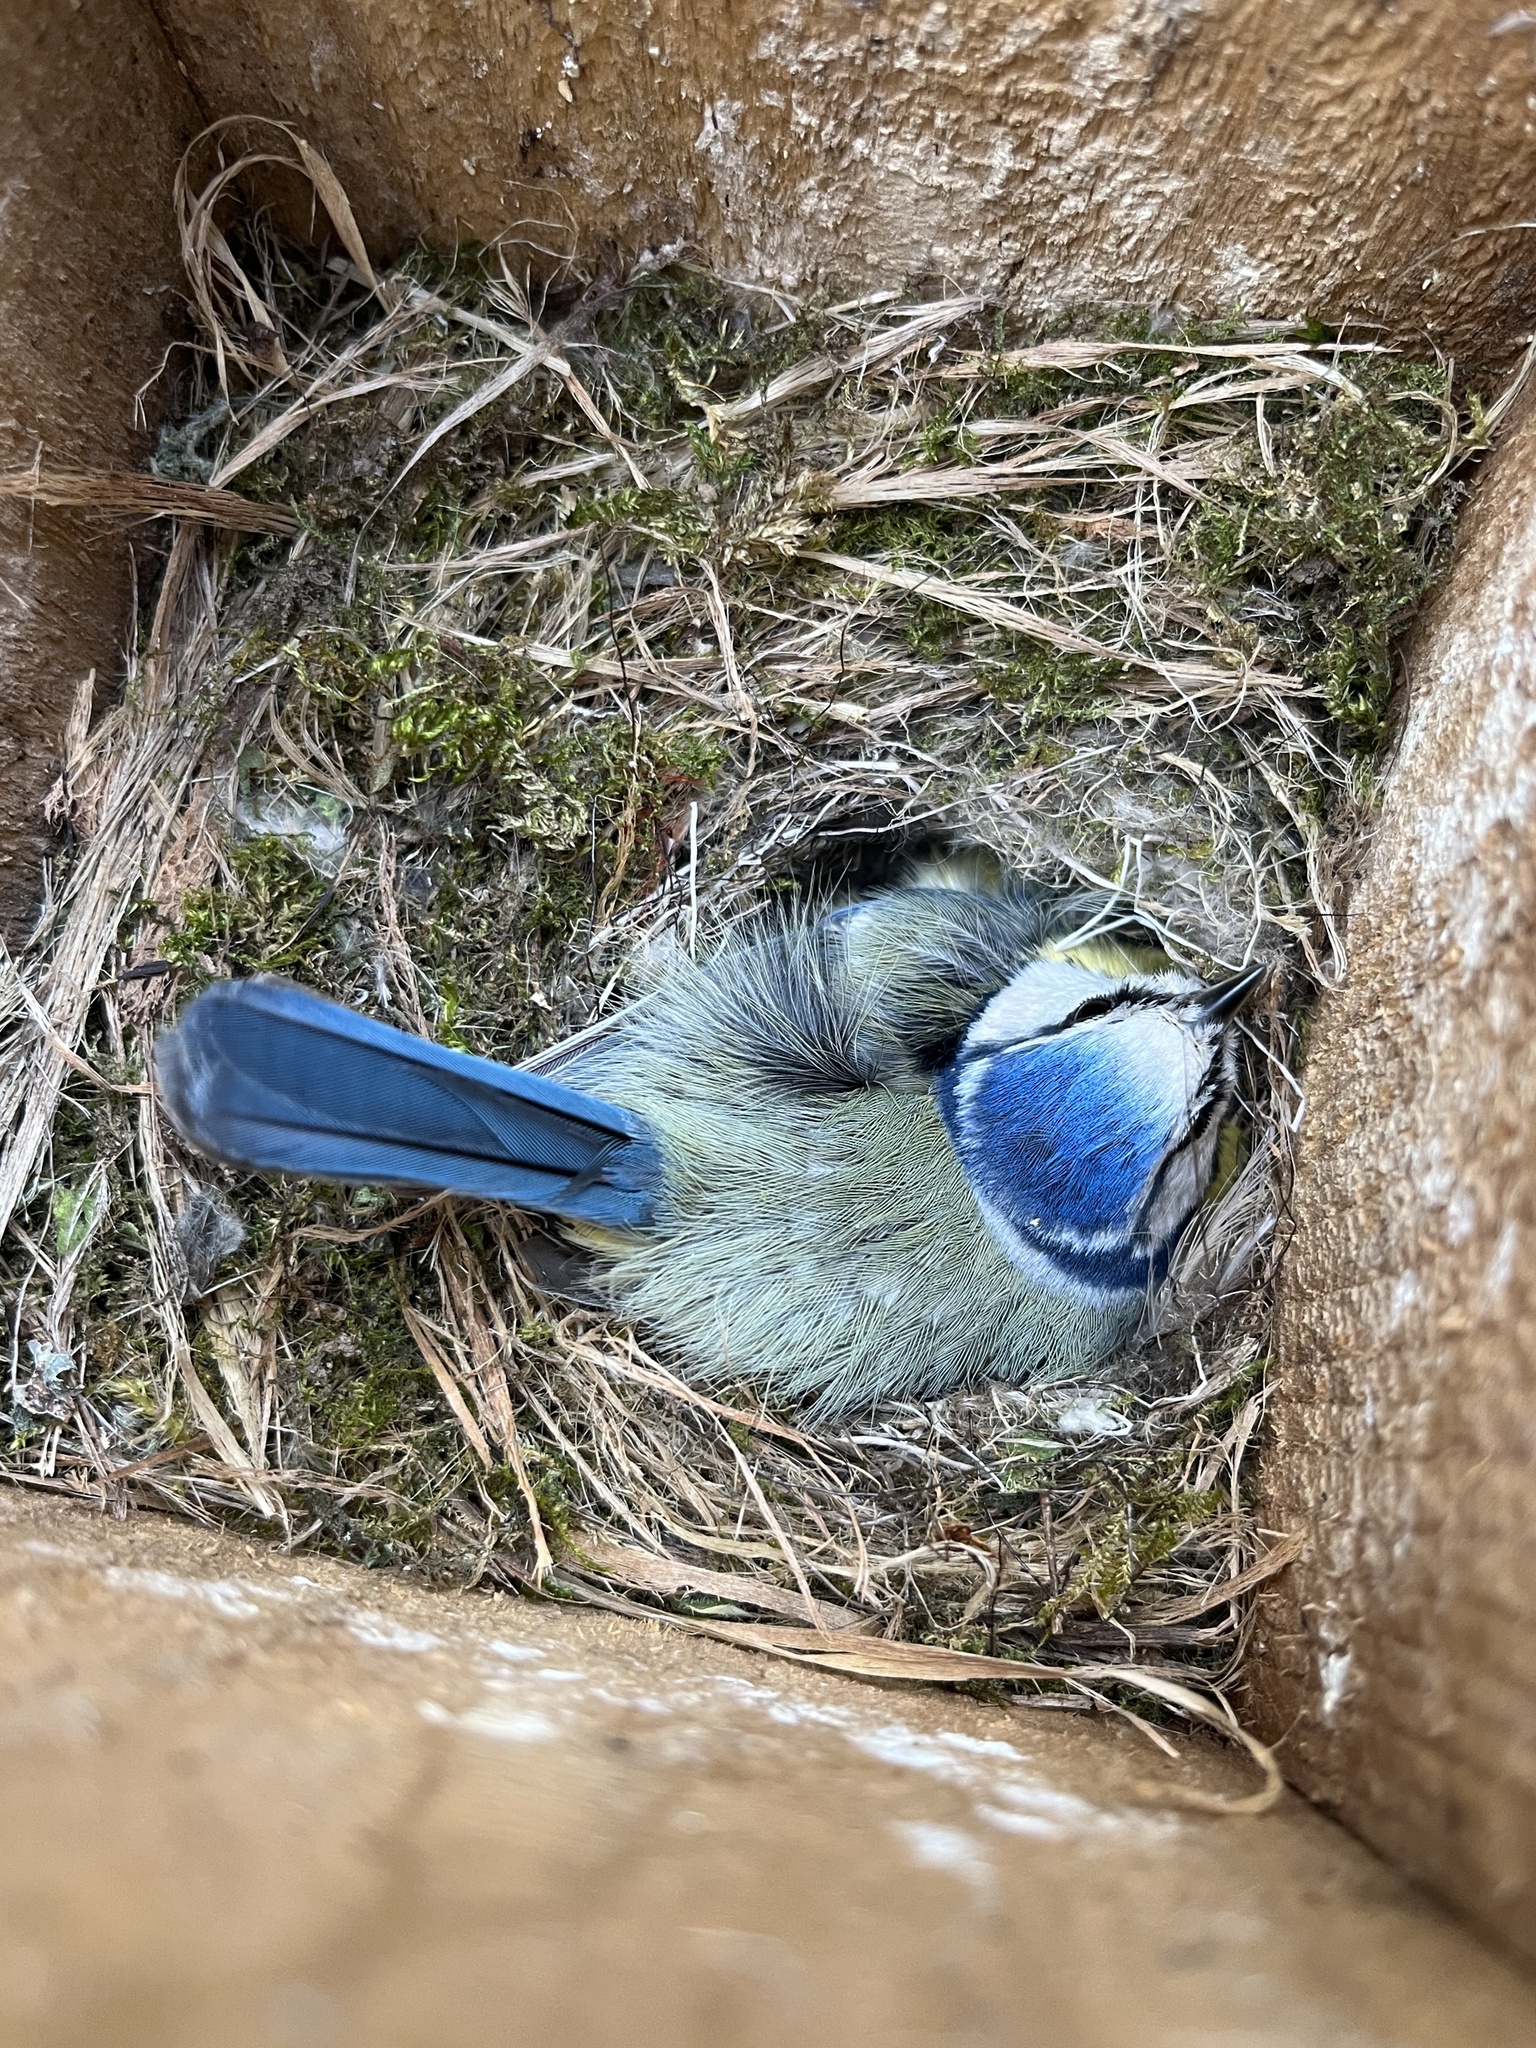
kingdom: Animalia
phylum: Chordata
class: Aves
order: Passeriformes
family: Paridae
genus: Cyanistes
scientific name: Cyanistes caeruleus
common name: Eurasian blue tit
